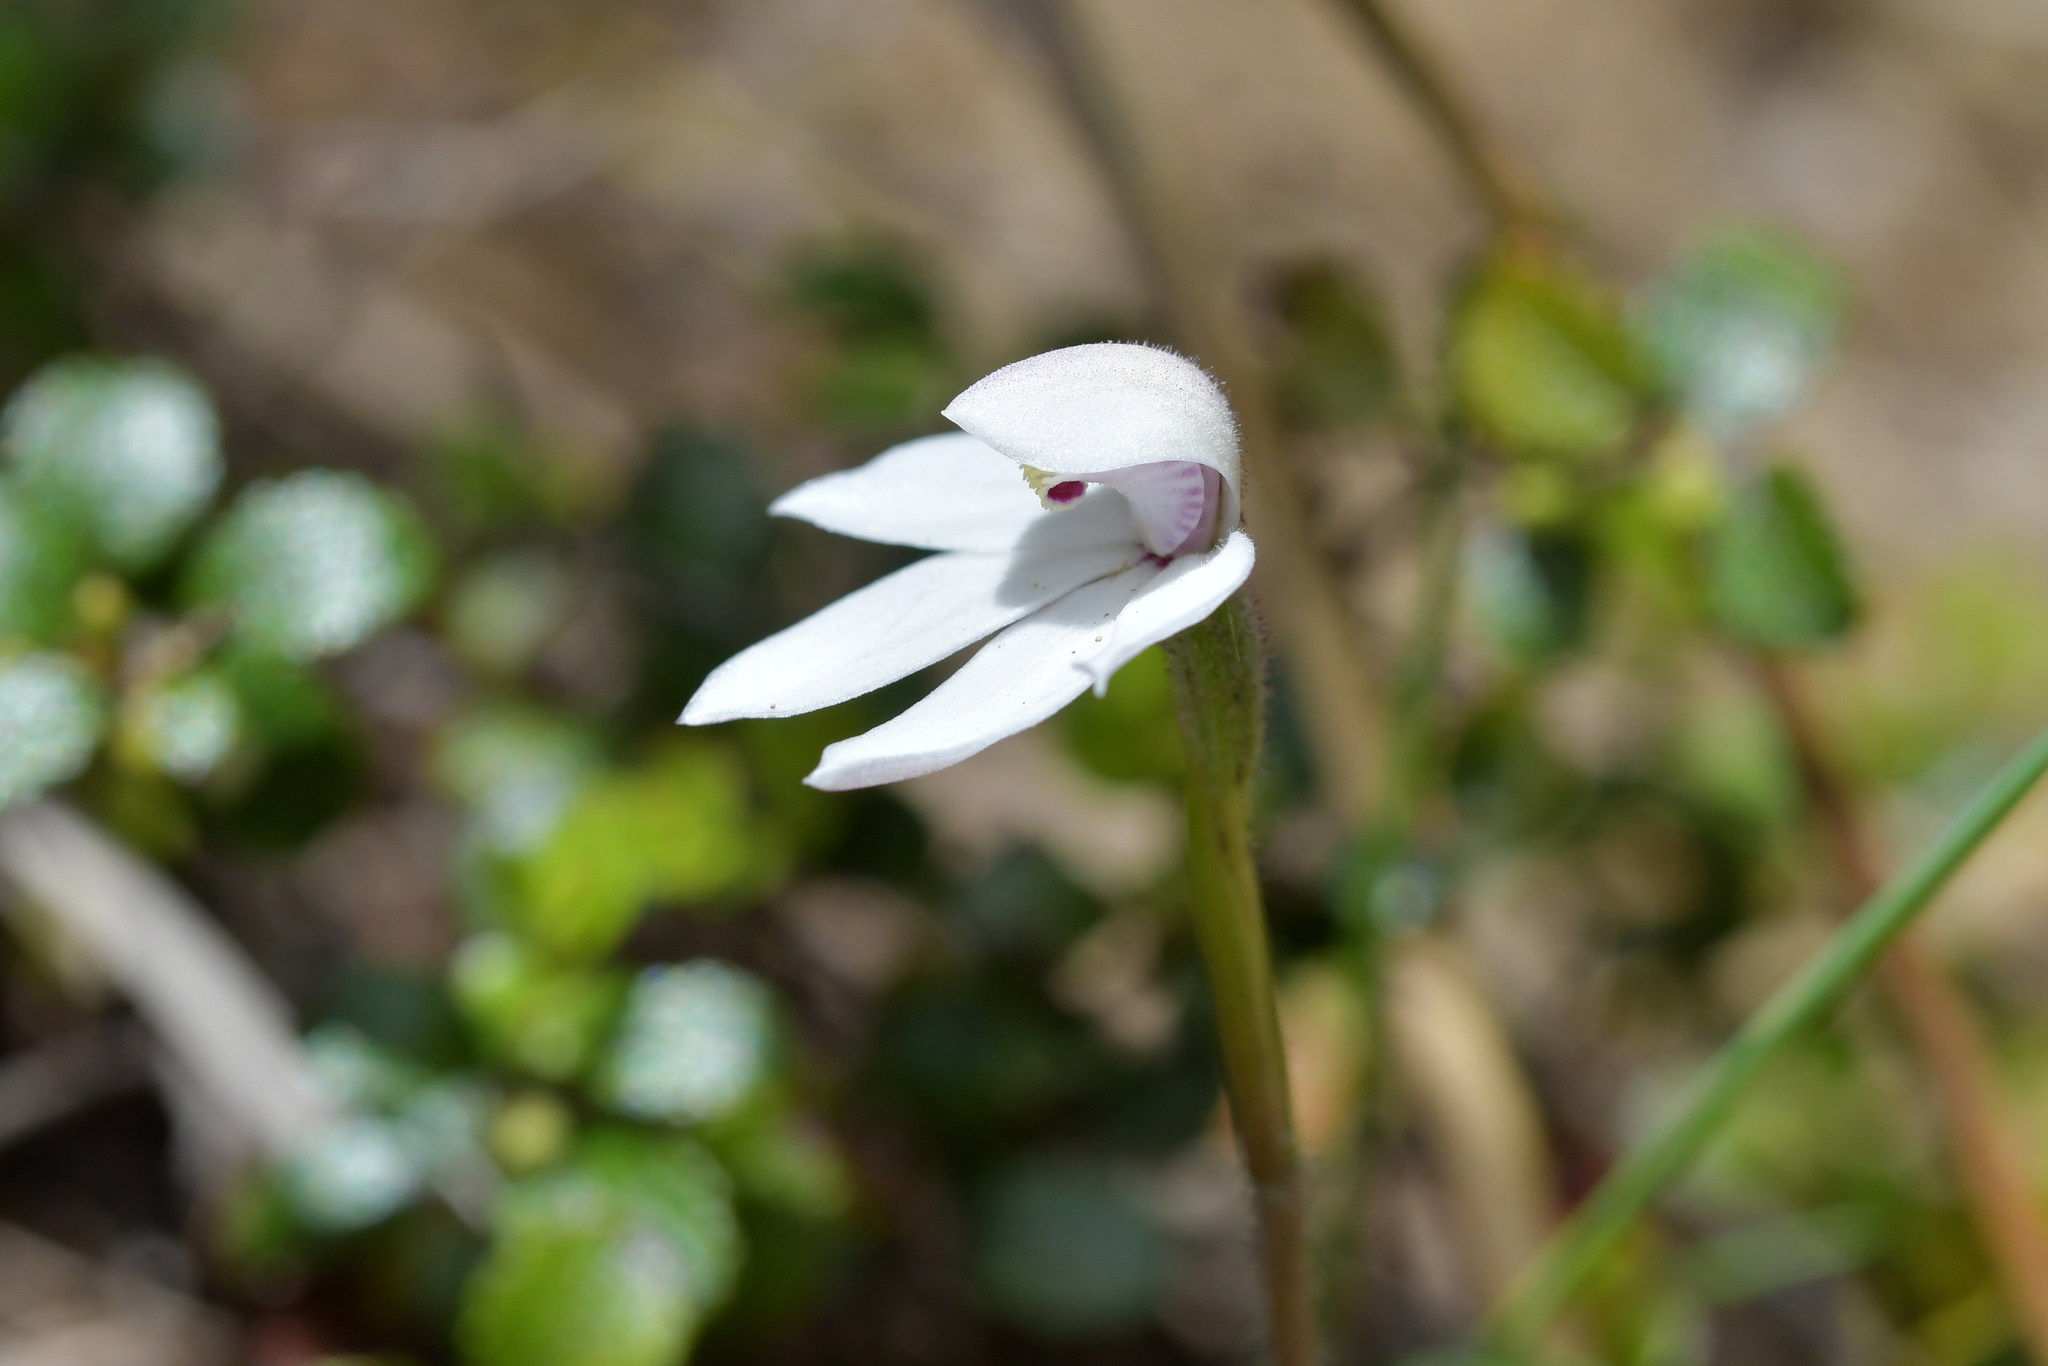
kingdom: Plantae
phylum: Tracheophyta
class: Liliopsida
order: Asparagales
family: Orchidaceae
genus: Caladenia
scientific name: Caladenia lyallii
